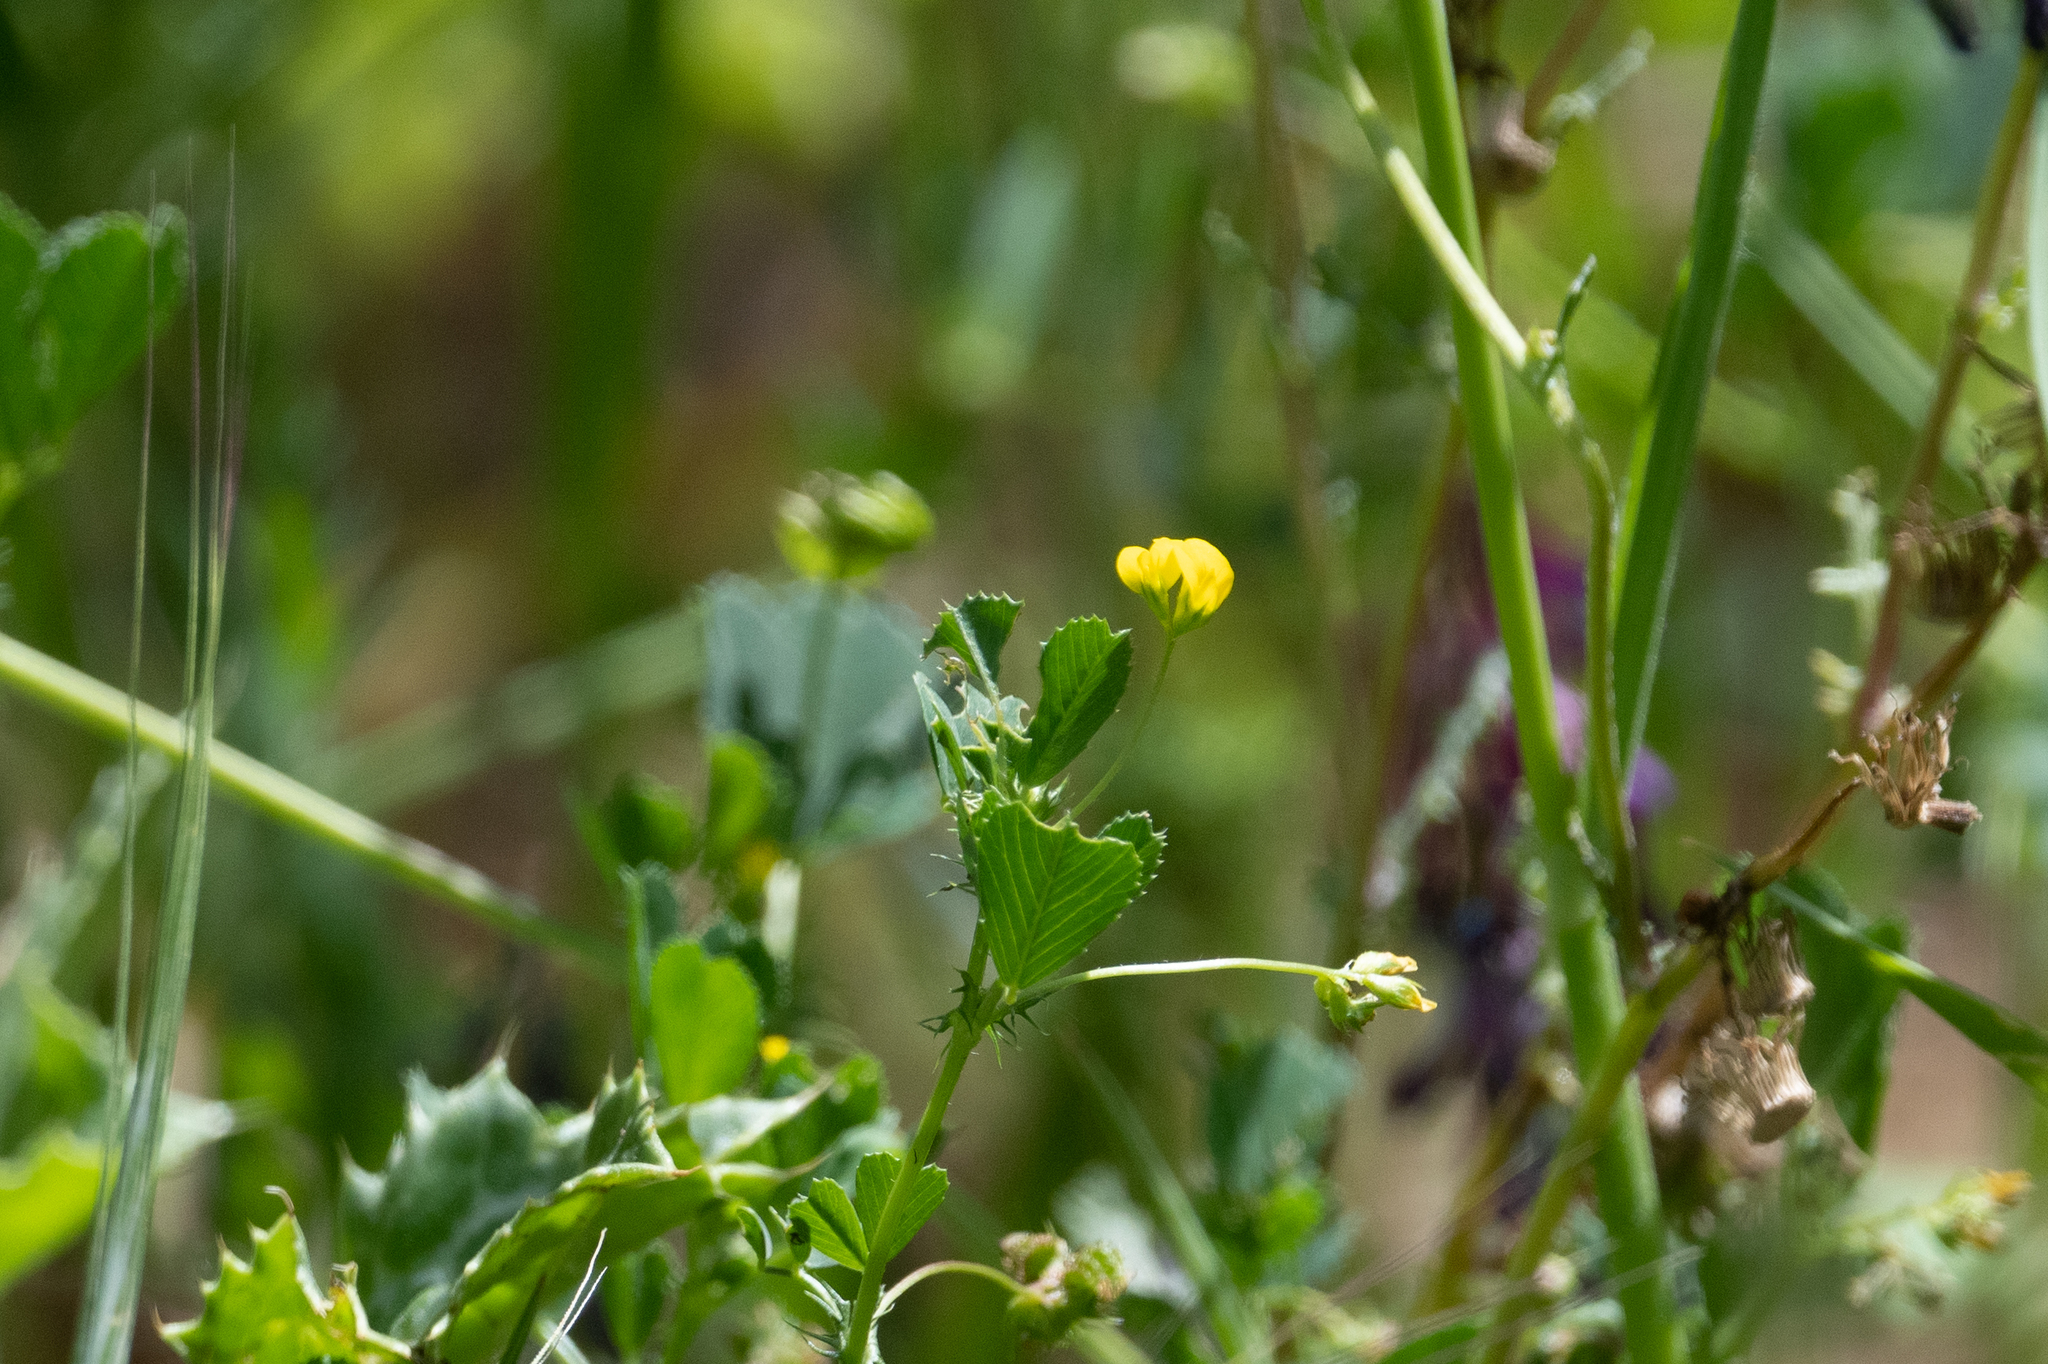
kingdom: Plantae
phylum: Tracheophyta
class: Magnoliopsida
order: Fabales
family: Fabaceae
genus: Medicago
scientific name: Medicago polymorpha
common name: Burclover
